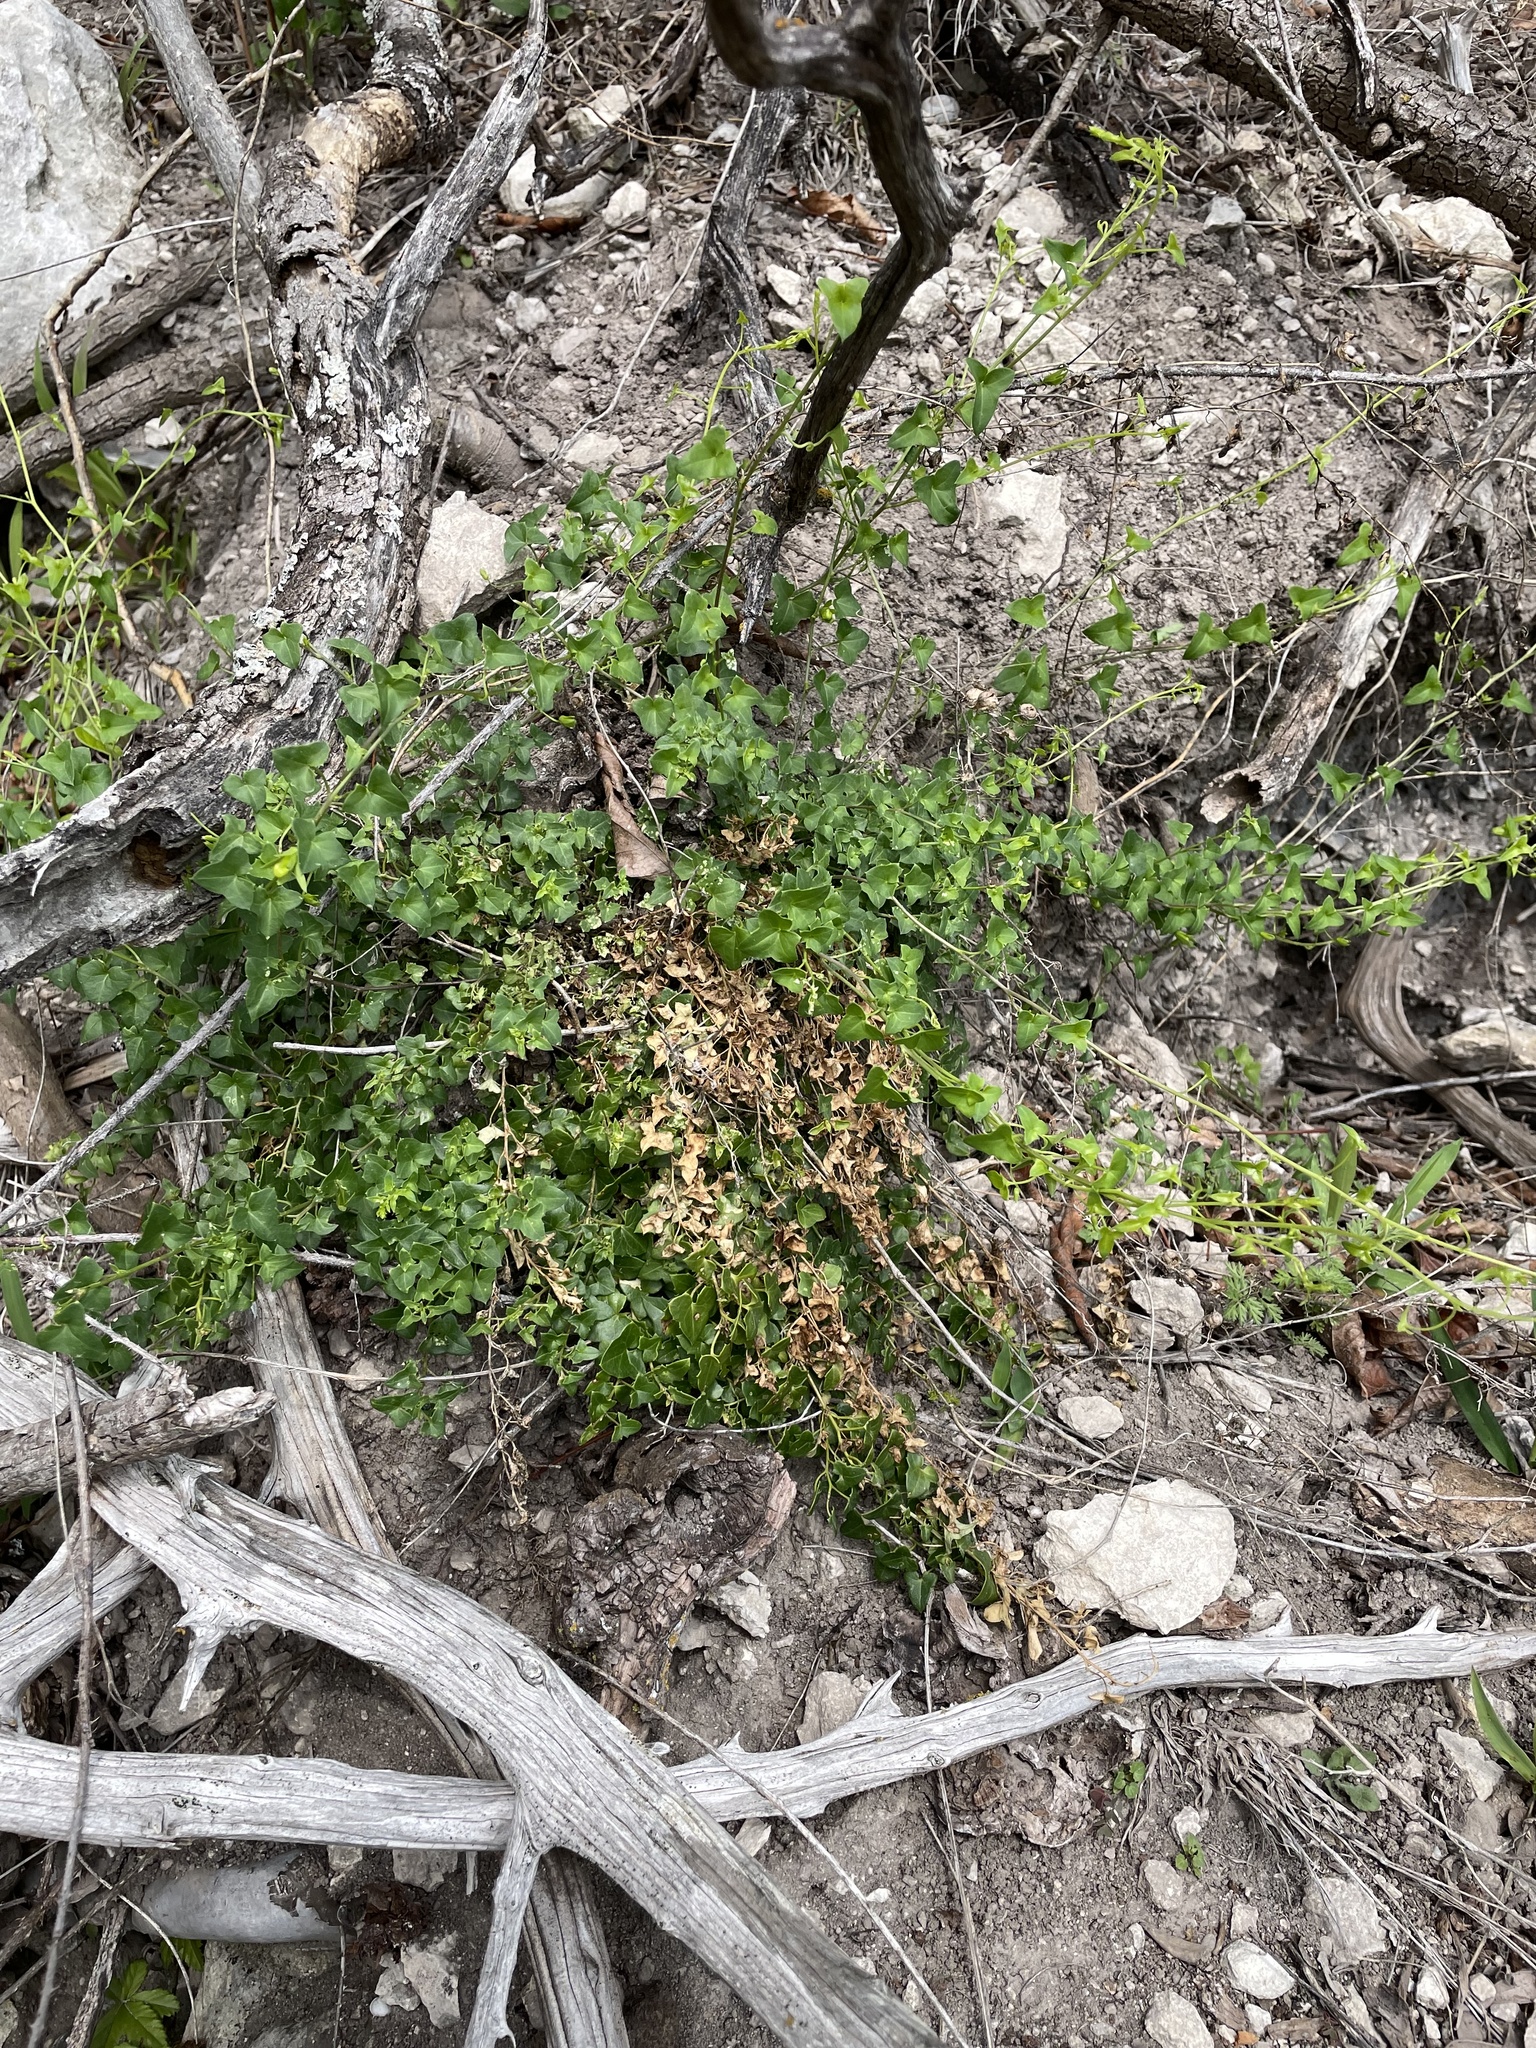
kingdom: Plantae
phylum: Tracheophyta
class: Magnoliopsida
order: Lamiales
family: Plantaginaceae
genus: Maurandella
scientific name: Maurandella antirrhiniflora
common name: Violet twining-snapdragon
